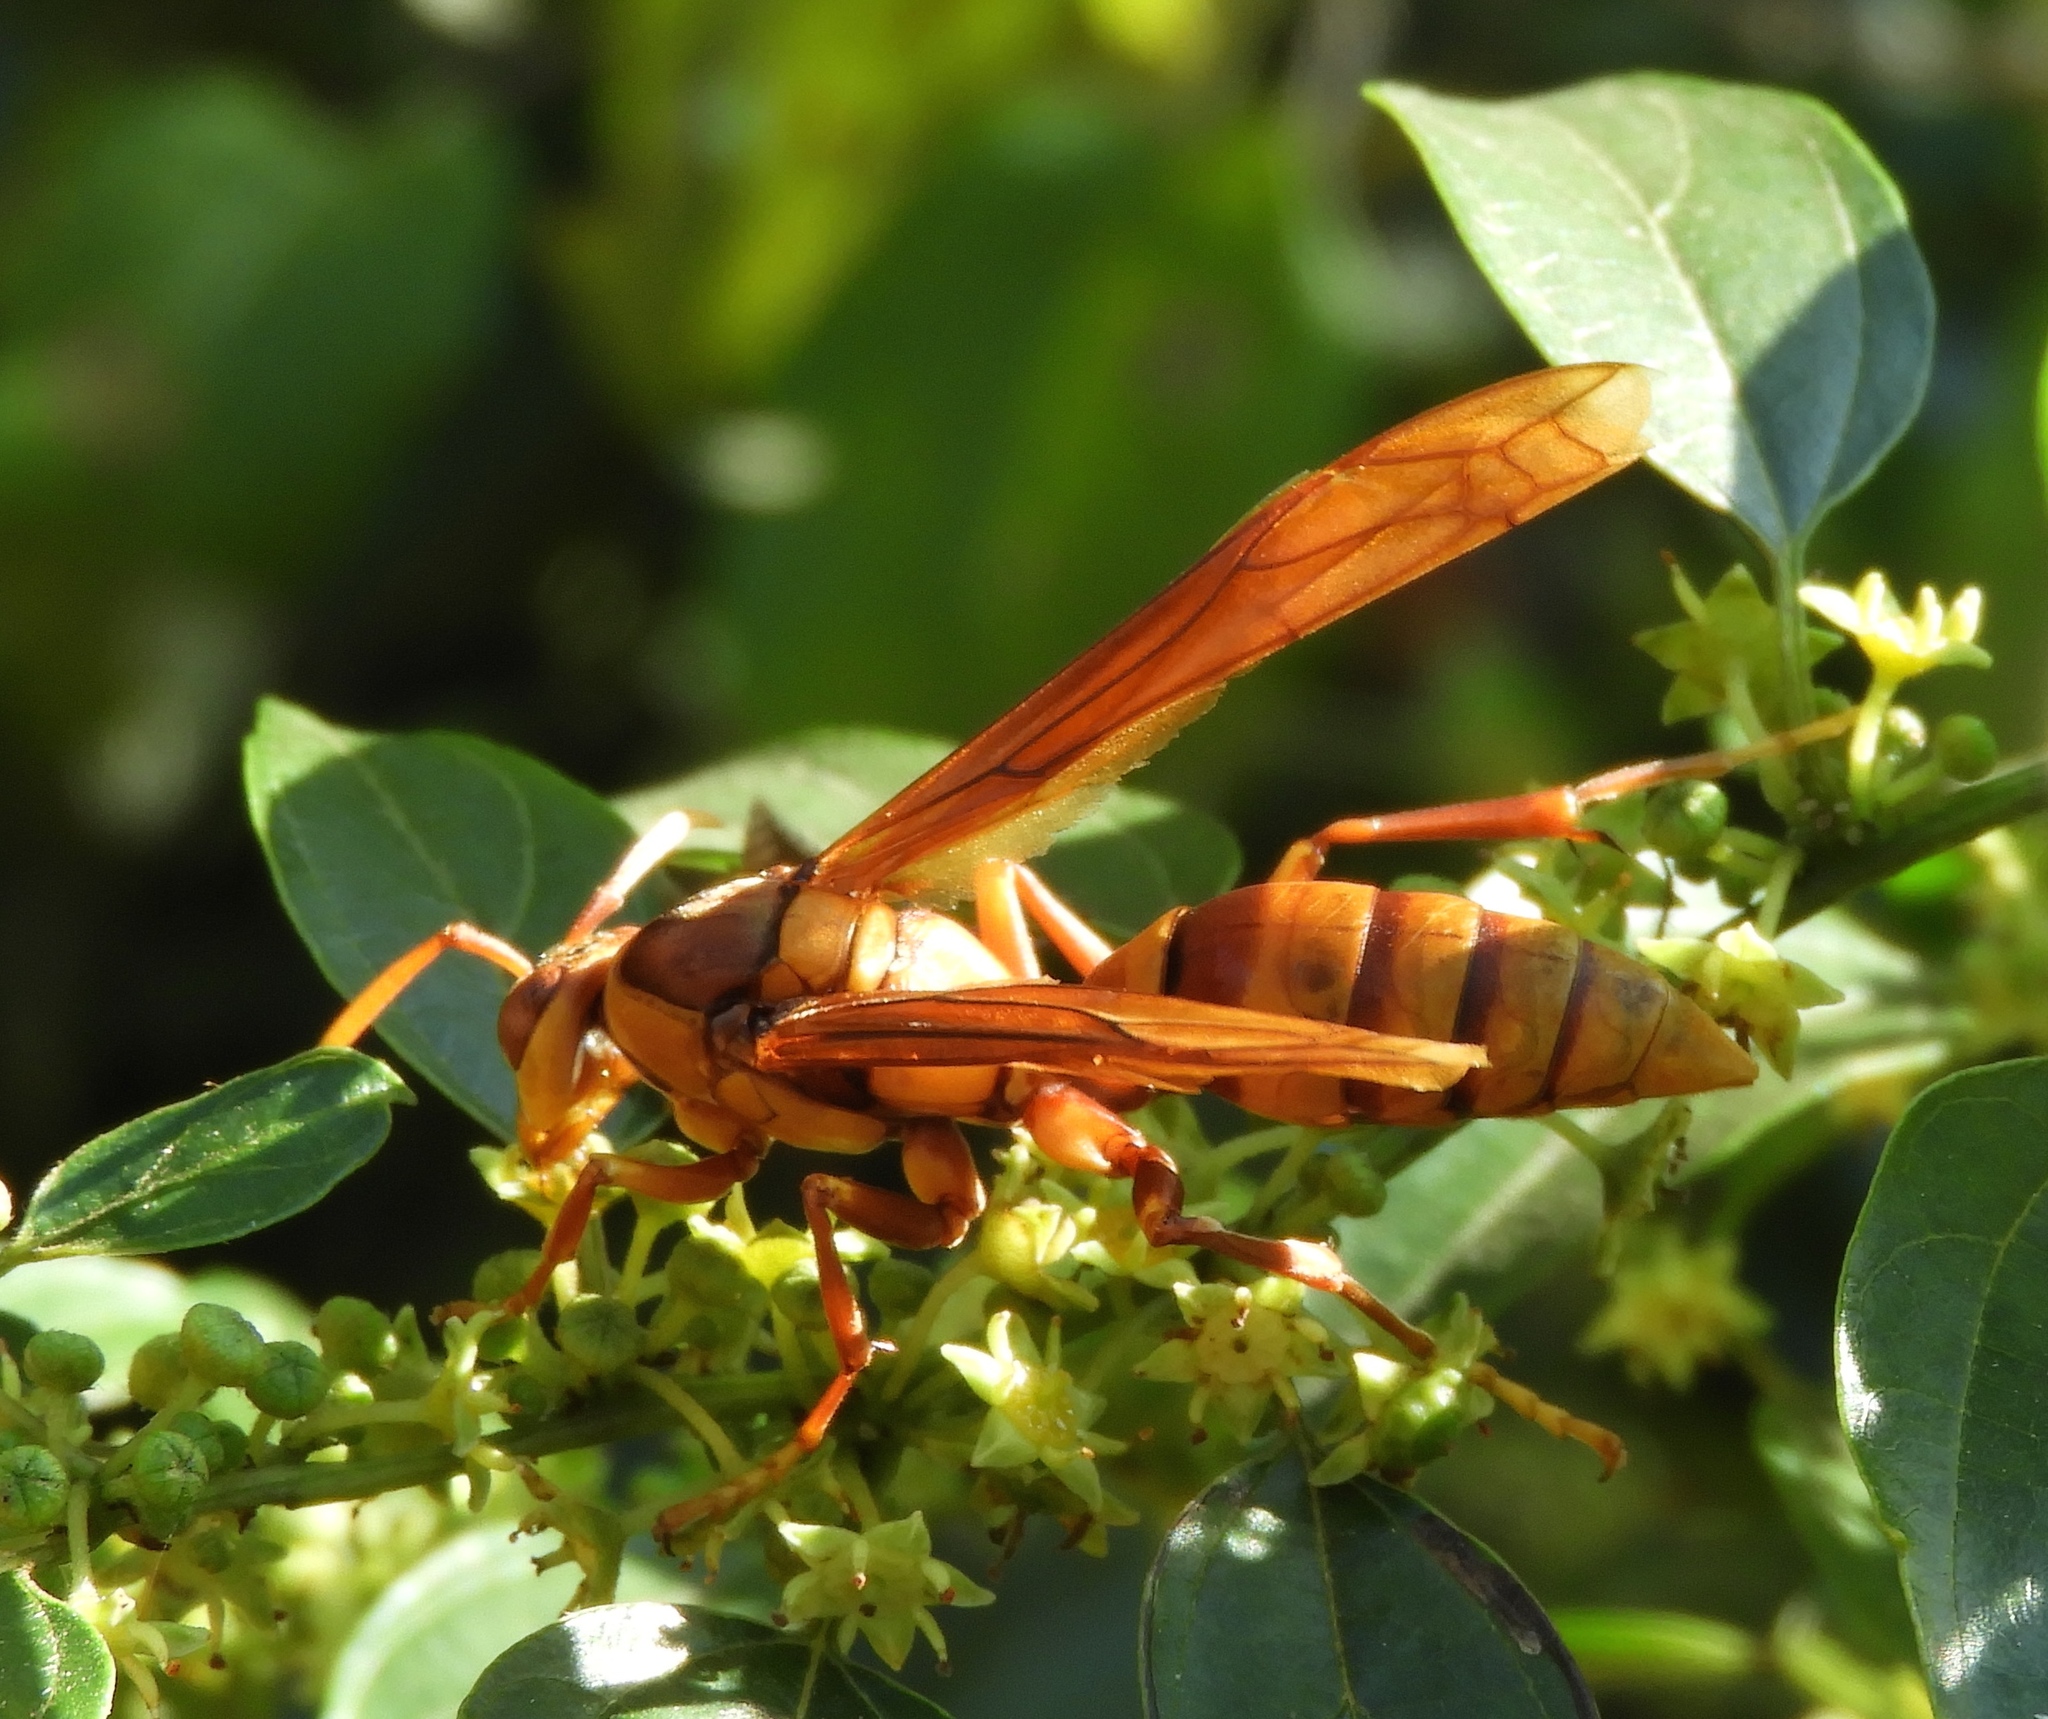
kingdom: Animalia
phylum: Arthropoda
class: Insecta
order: Hymenoptera
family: Eumenidae
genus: Polistes
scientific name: Polistes carnifex
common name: Paper wasp
